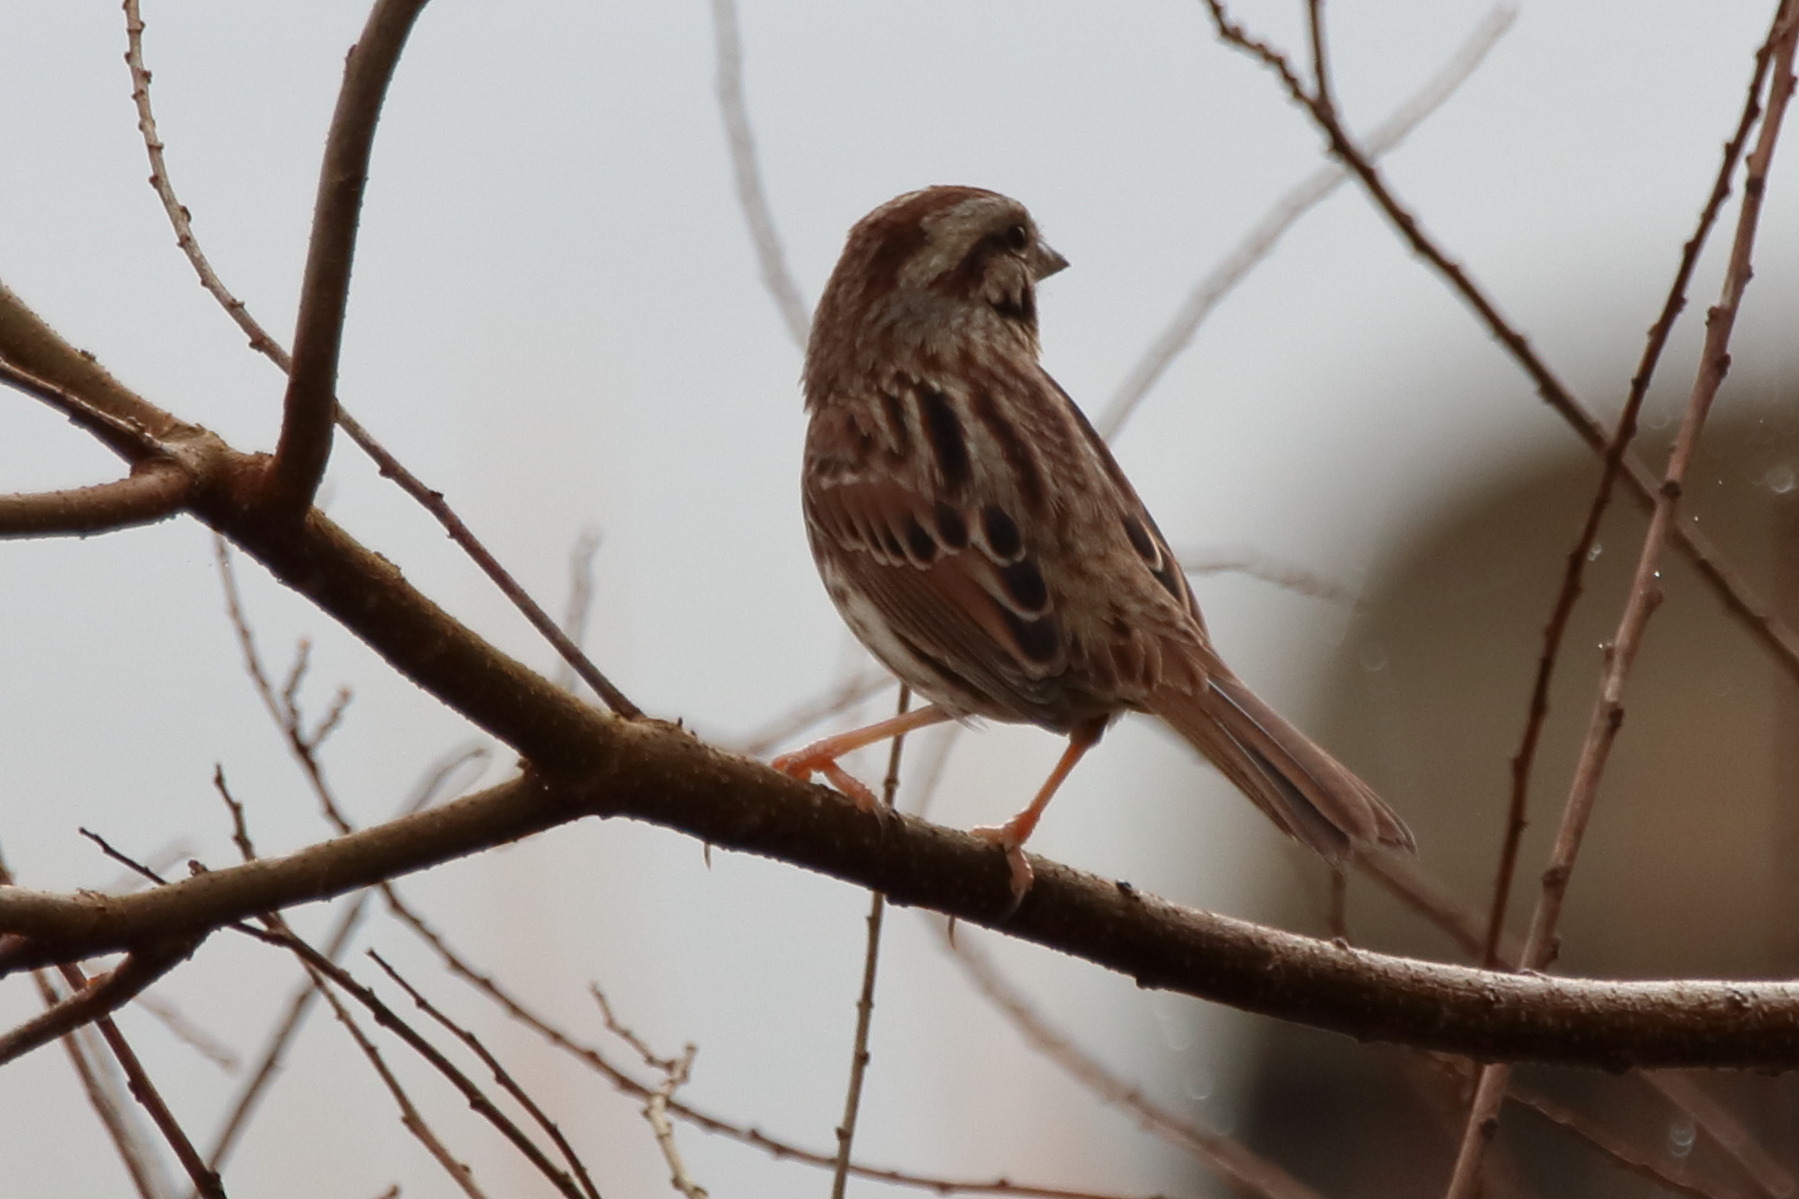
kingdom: Animalia
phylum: Chordata
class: Aves
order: Passeriformes
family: Passerellidae
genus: Melospiza
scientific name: Melospiza melodia
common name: Song sparrow
